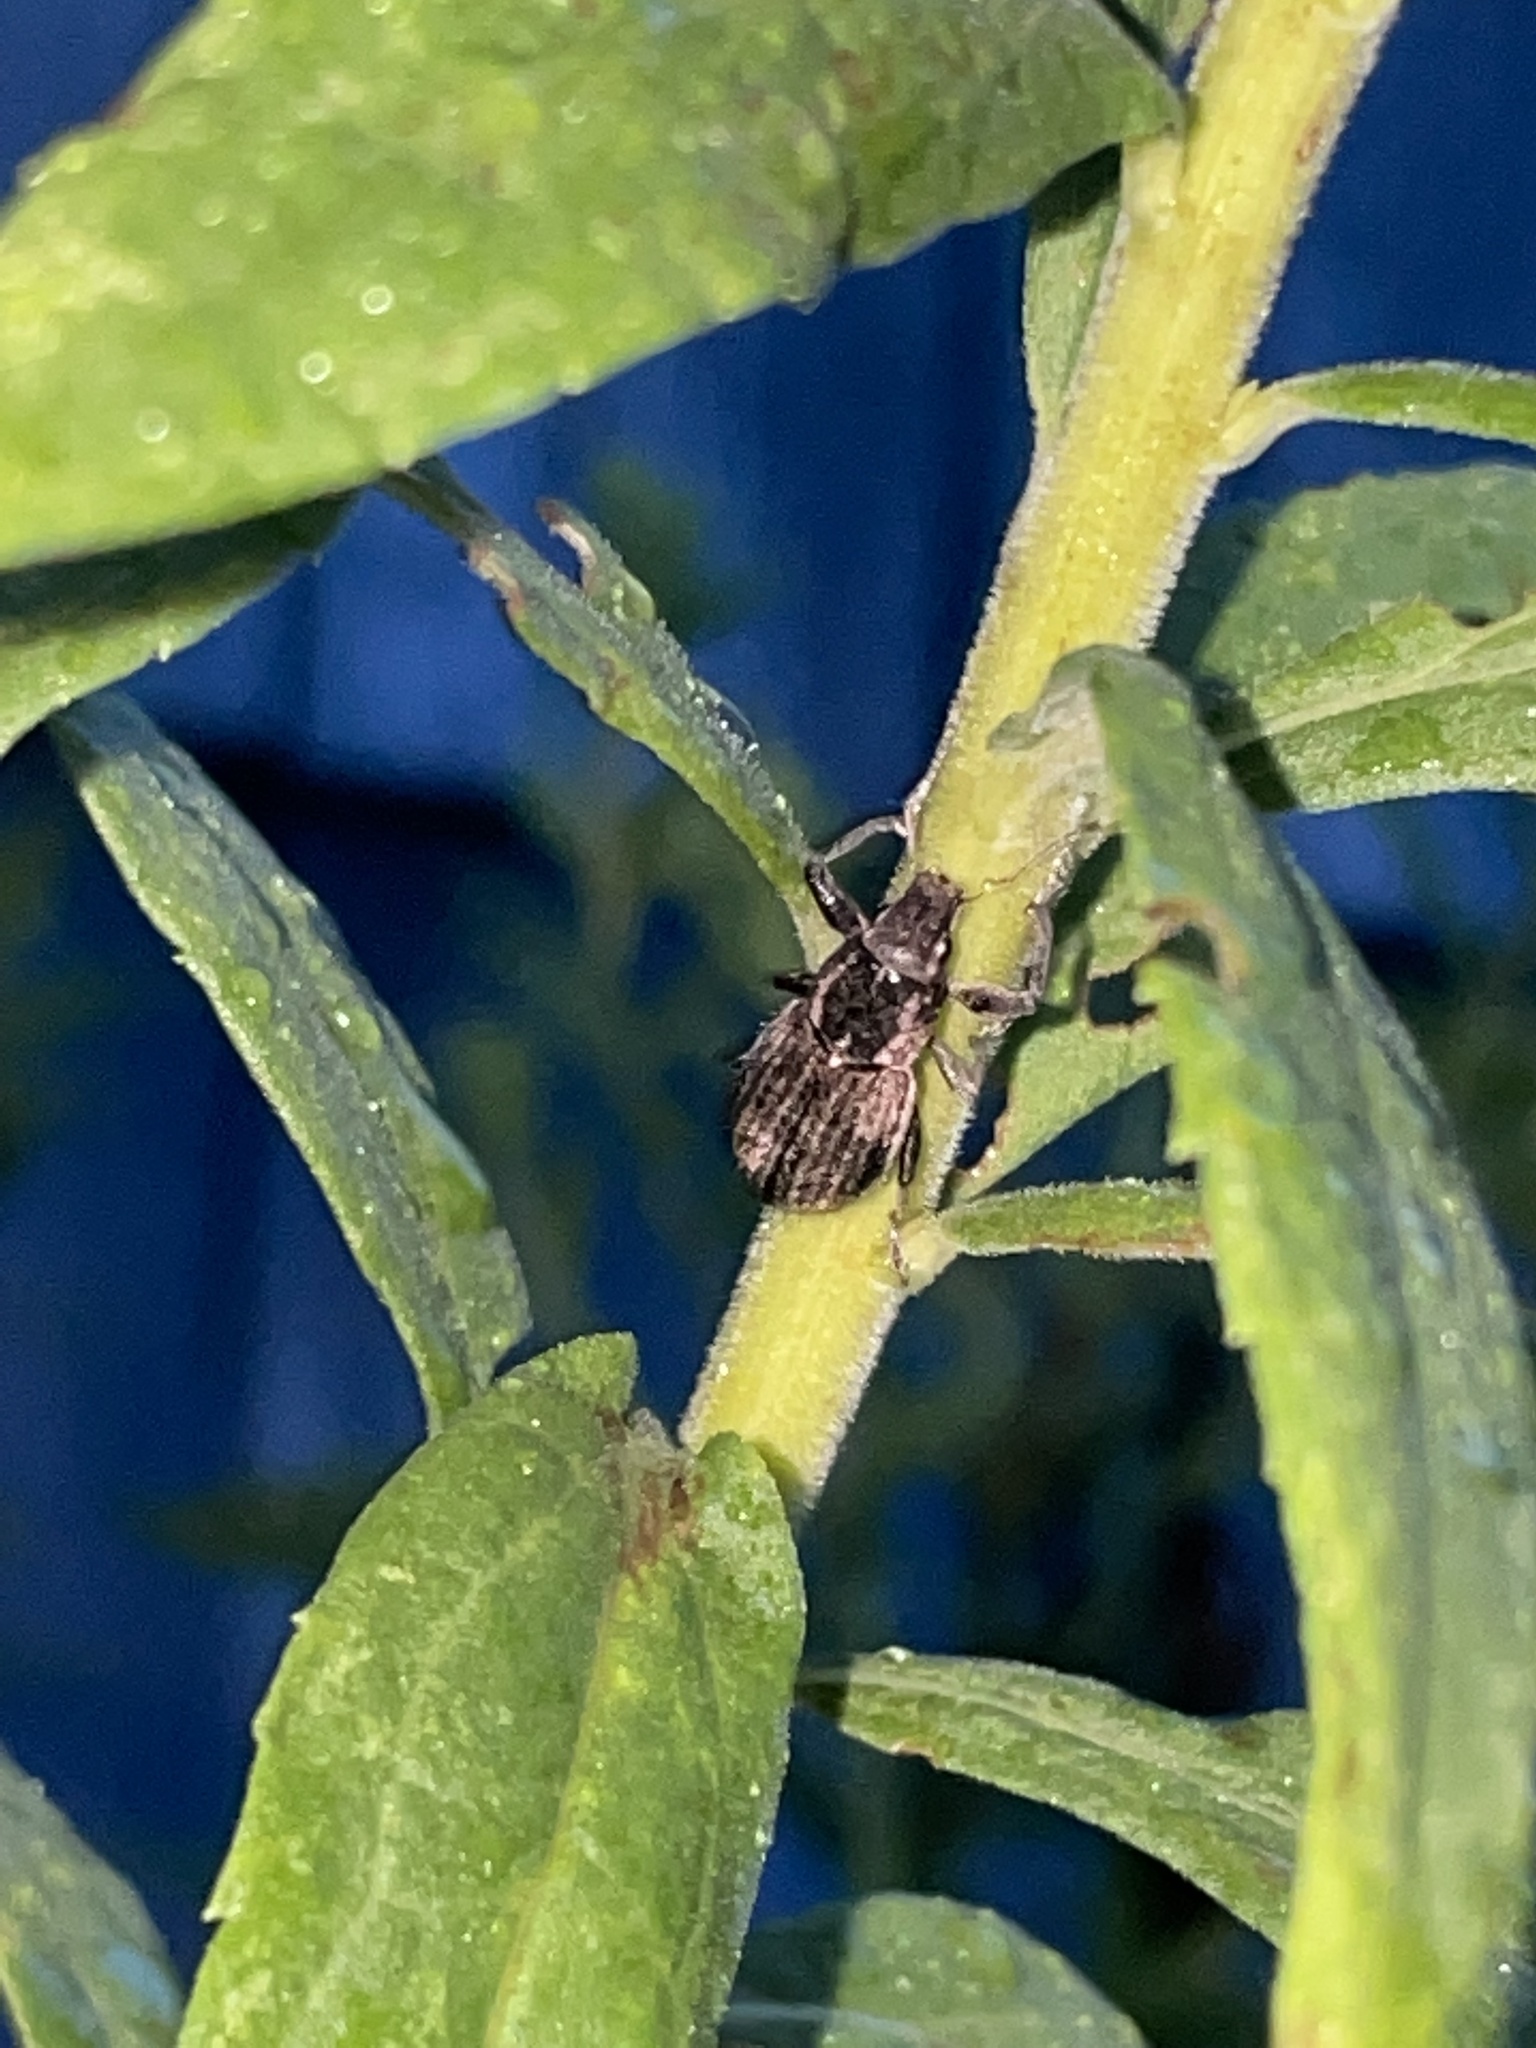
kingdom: Animalia
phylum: Arthropoda
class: Insecta
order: Coleoptera
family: Curculionidae
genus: Naupactus
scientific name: Naupactus leucoloma
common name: Whitefringed beetle
